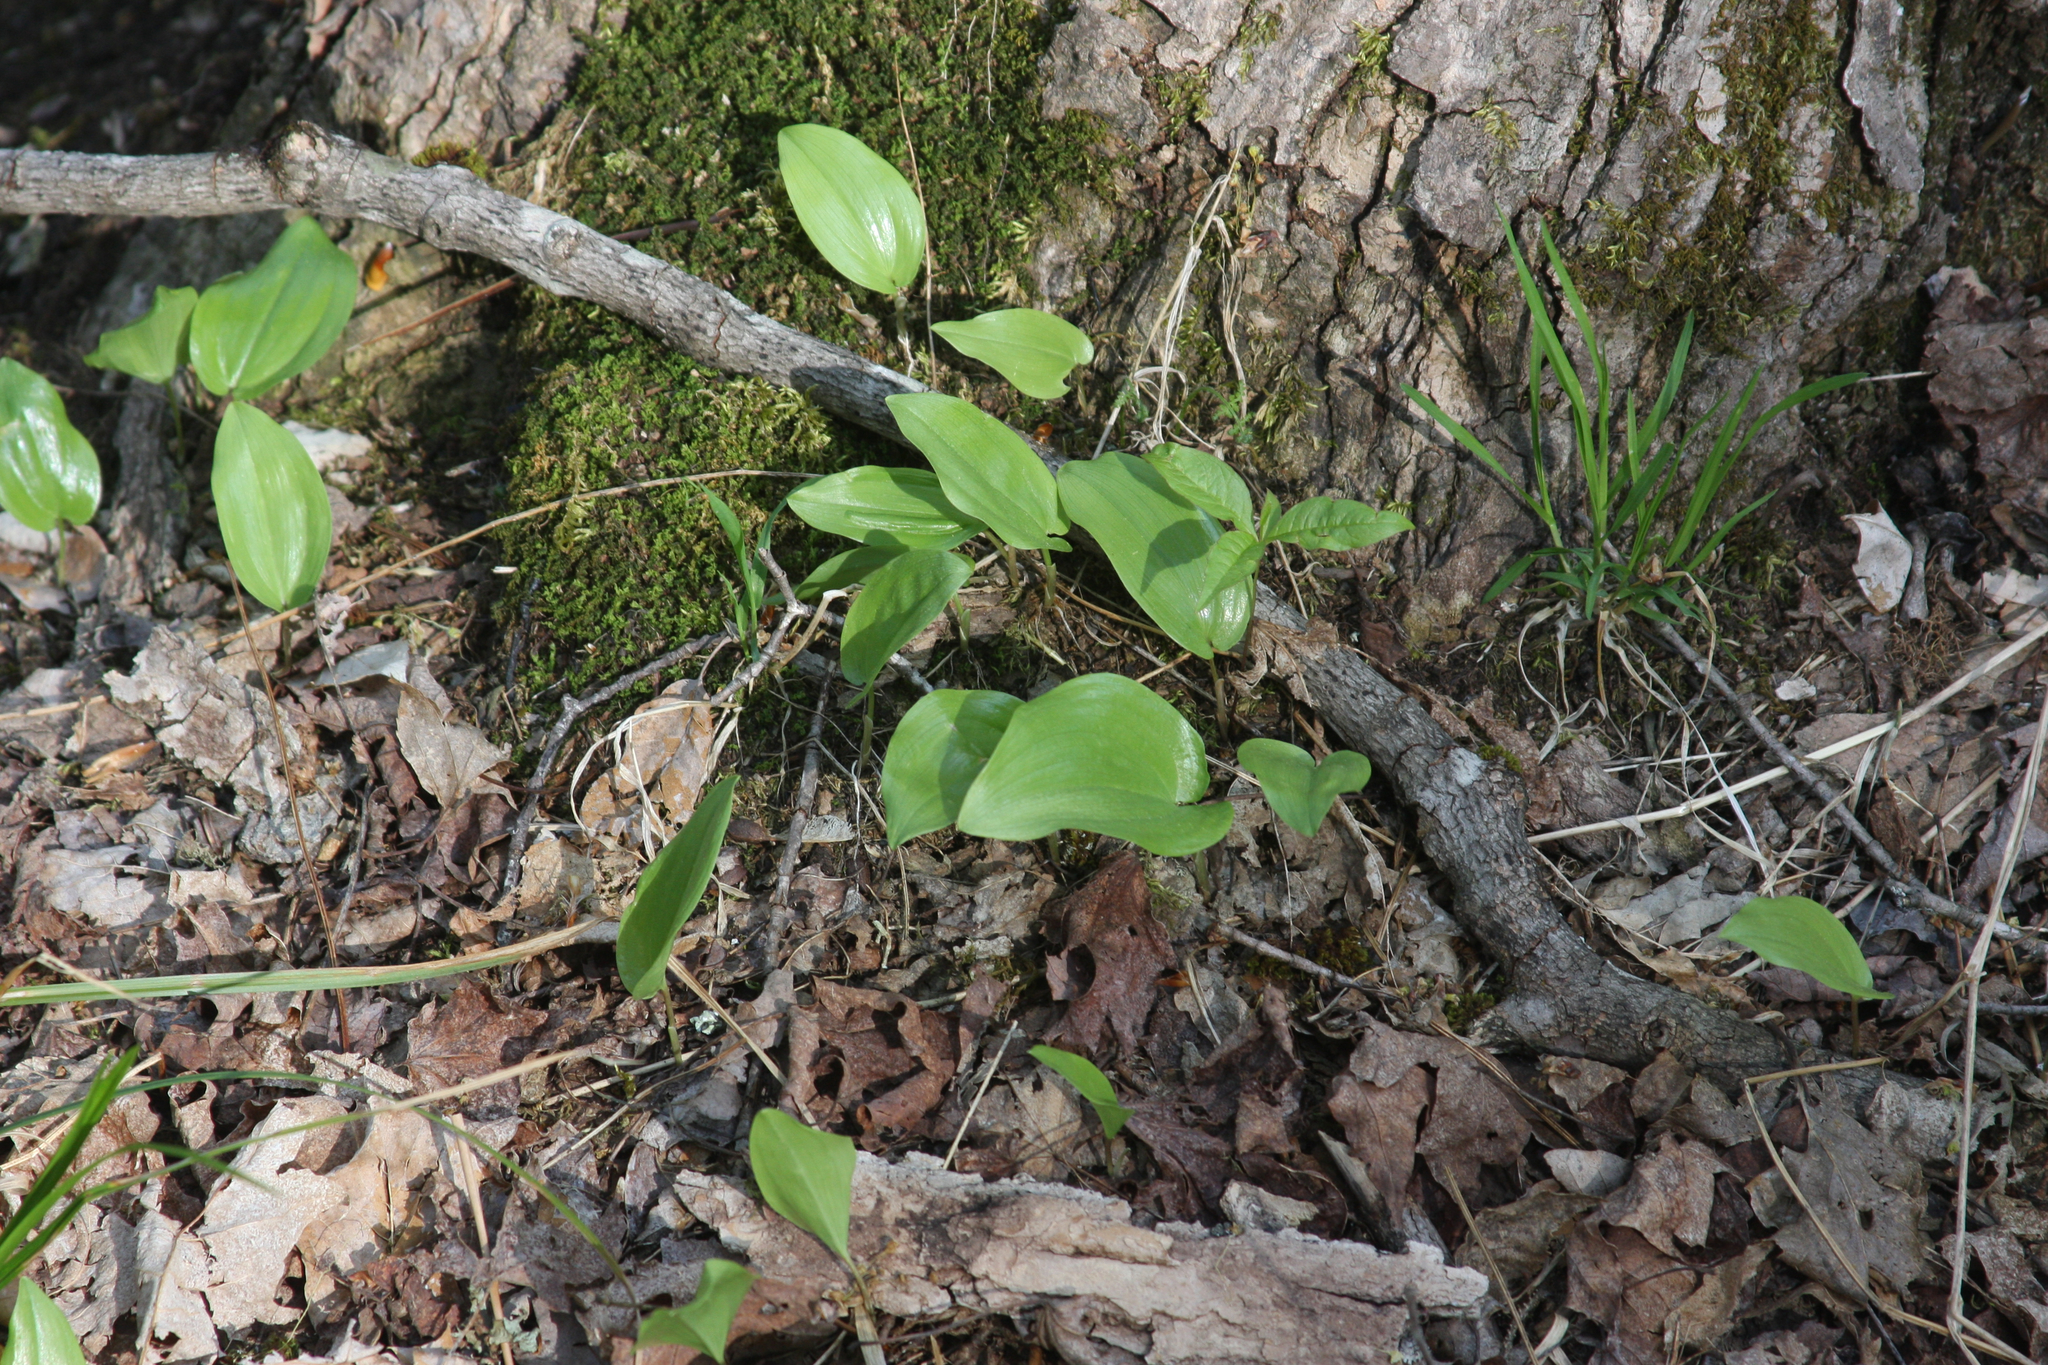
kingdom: Plantae
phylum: Tracheophyta
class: Liliopsida
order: Asparagales
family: Asparagaceae
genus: Maianthemum
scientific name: Maianthemum canadense
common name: False lily-of-the-valley
